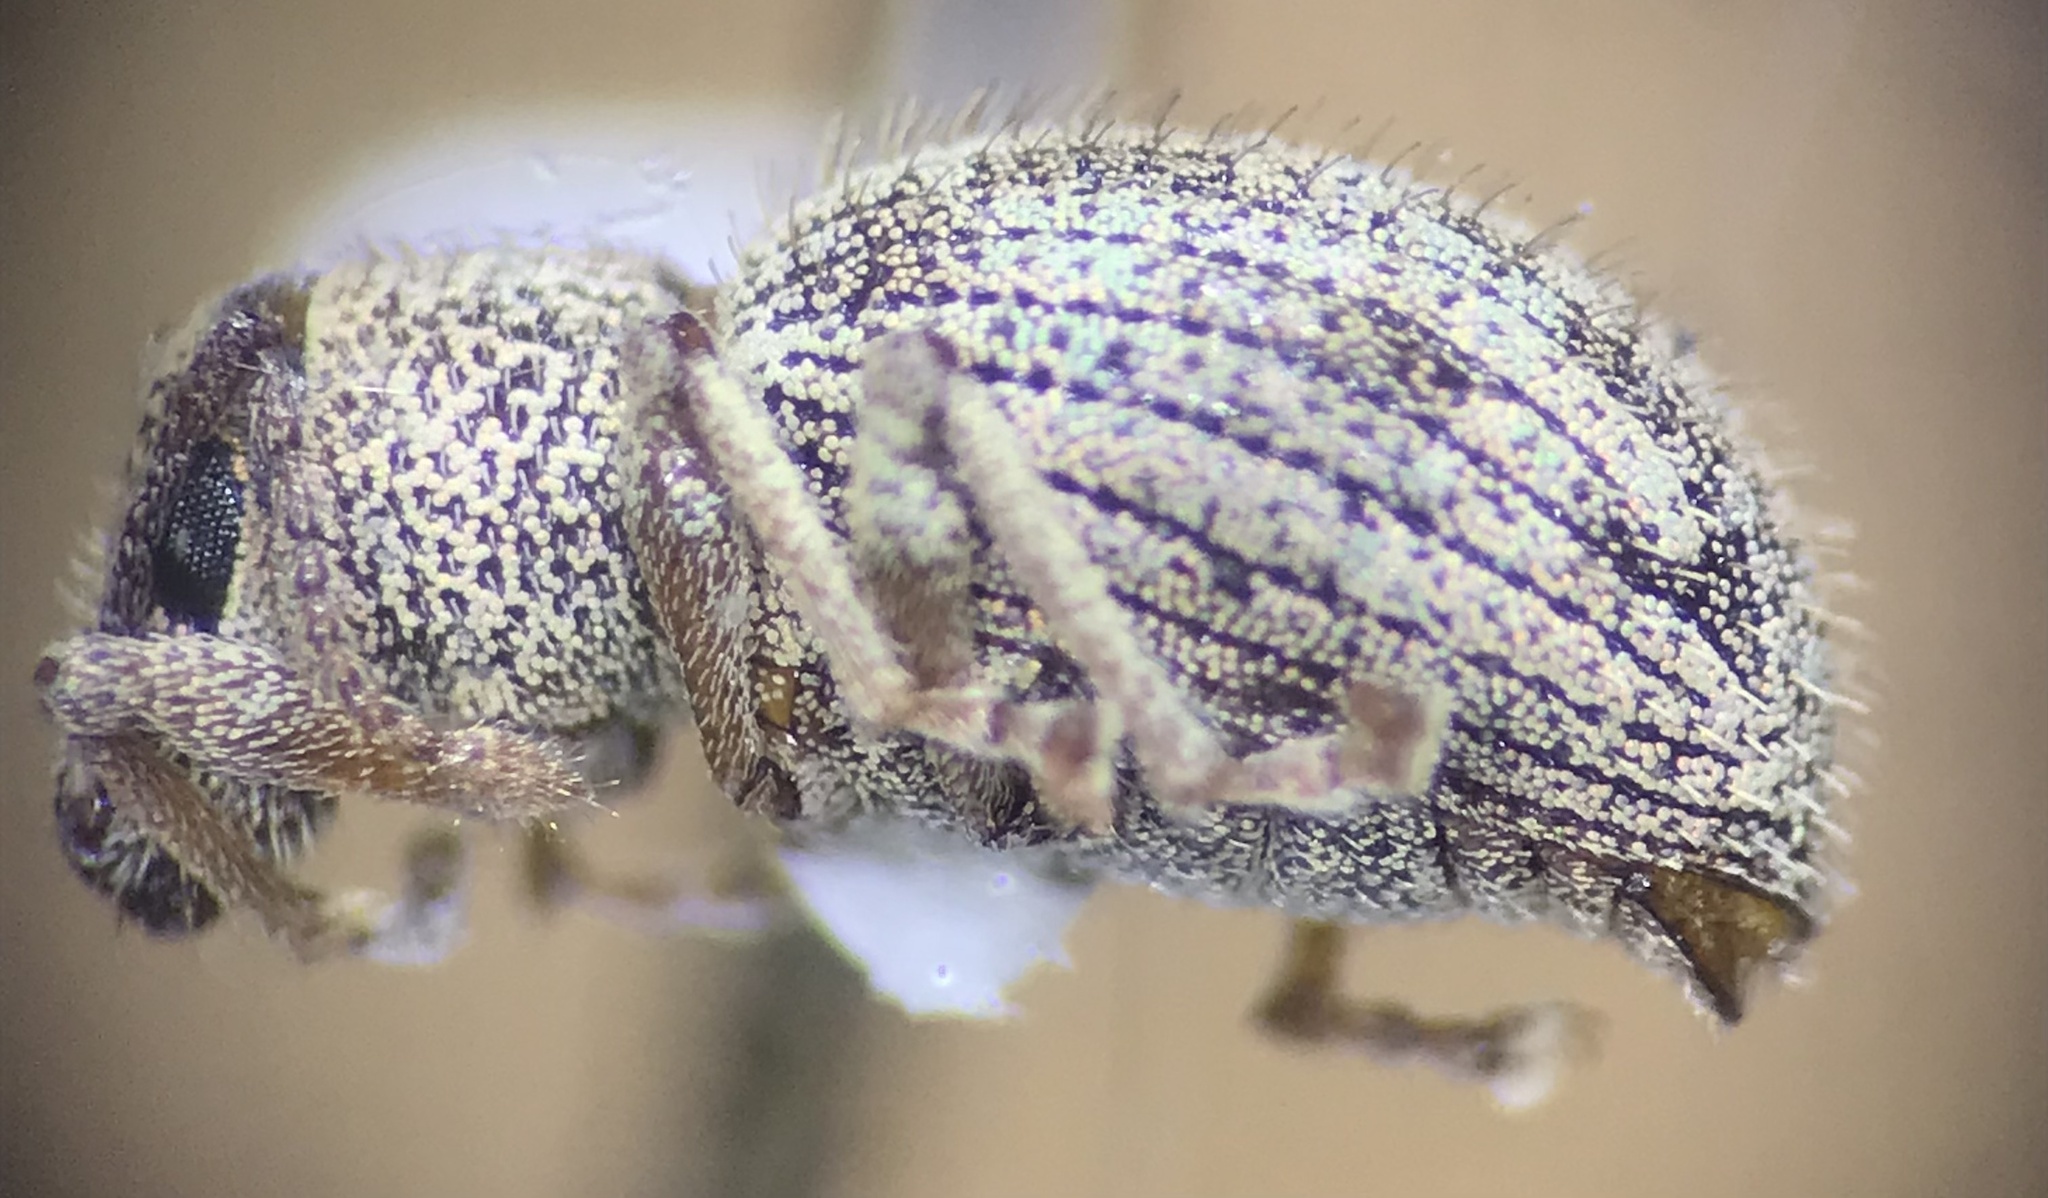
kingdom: Animalia
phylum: Arthropoda
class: Insecta
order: Coleoptera
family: Curculionidae
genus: Calomycterus
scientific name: Calomycterus setarius
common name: Weevil
